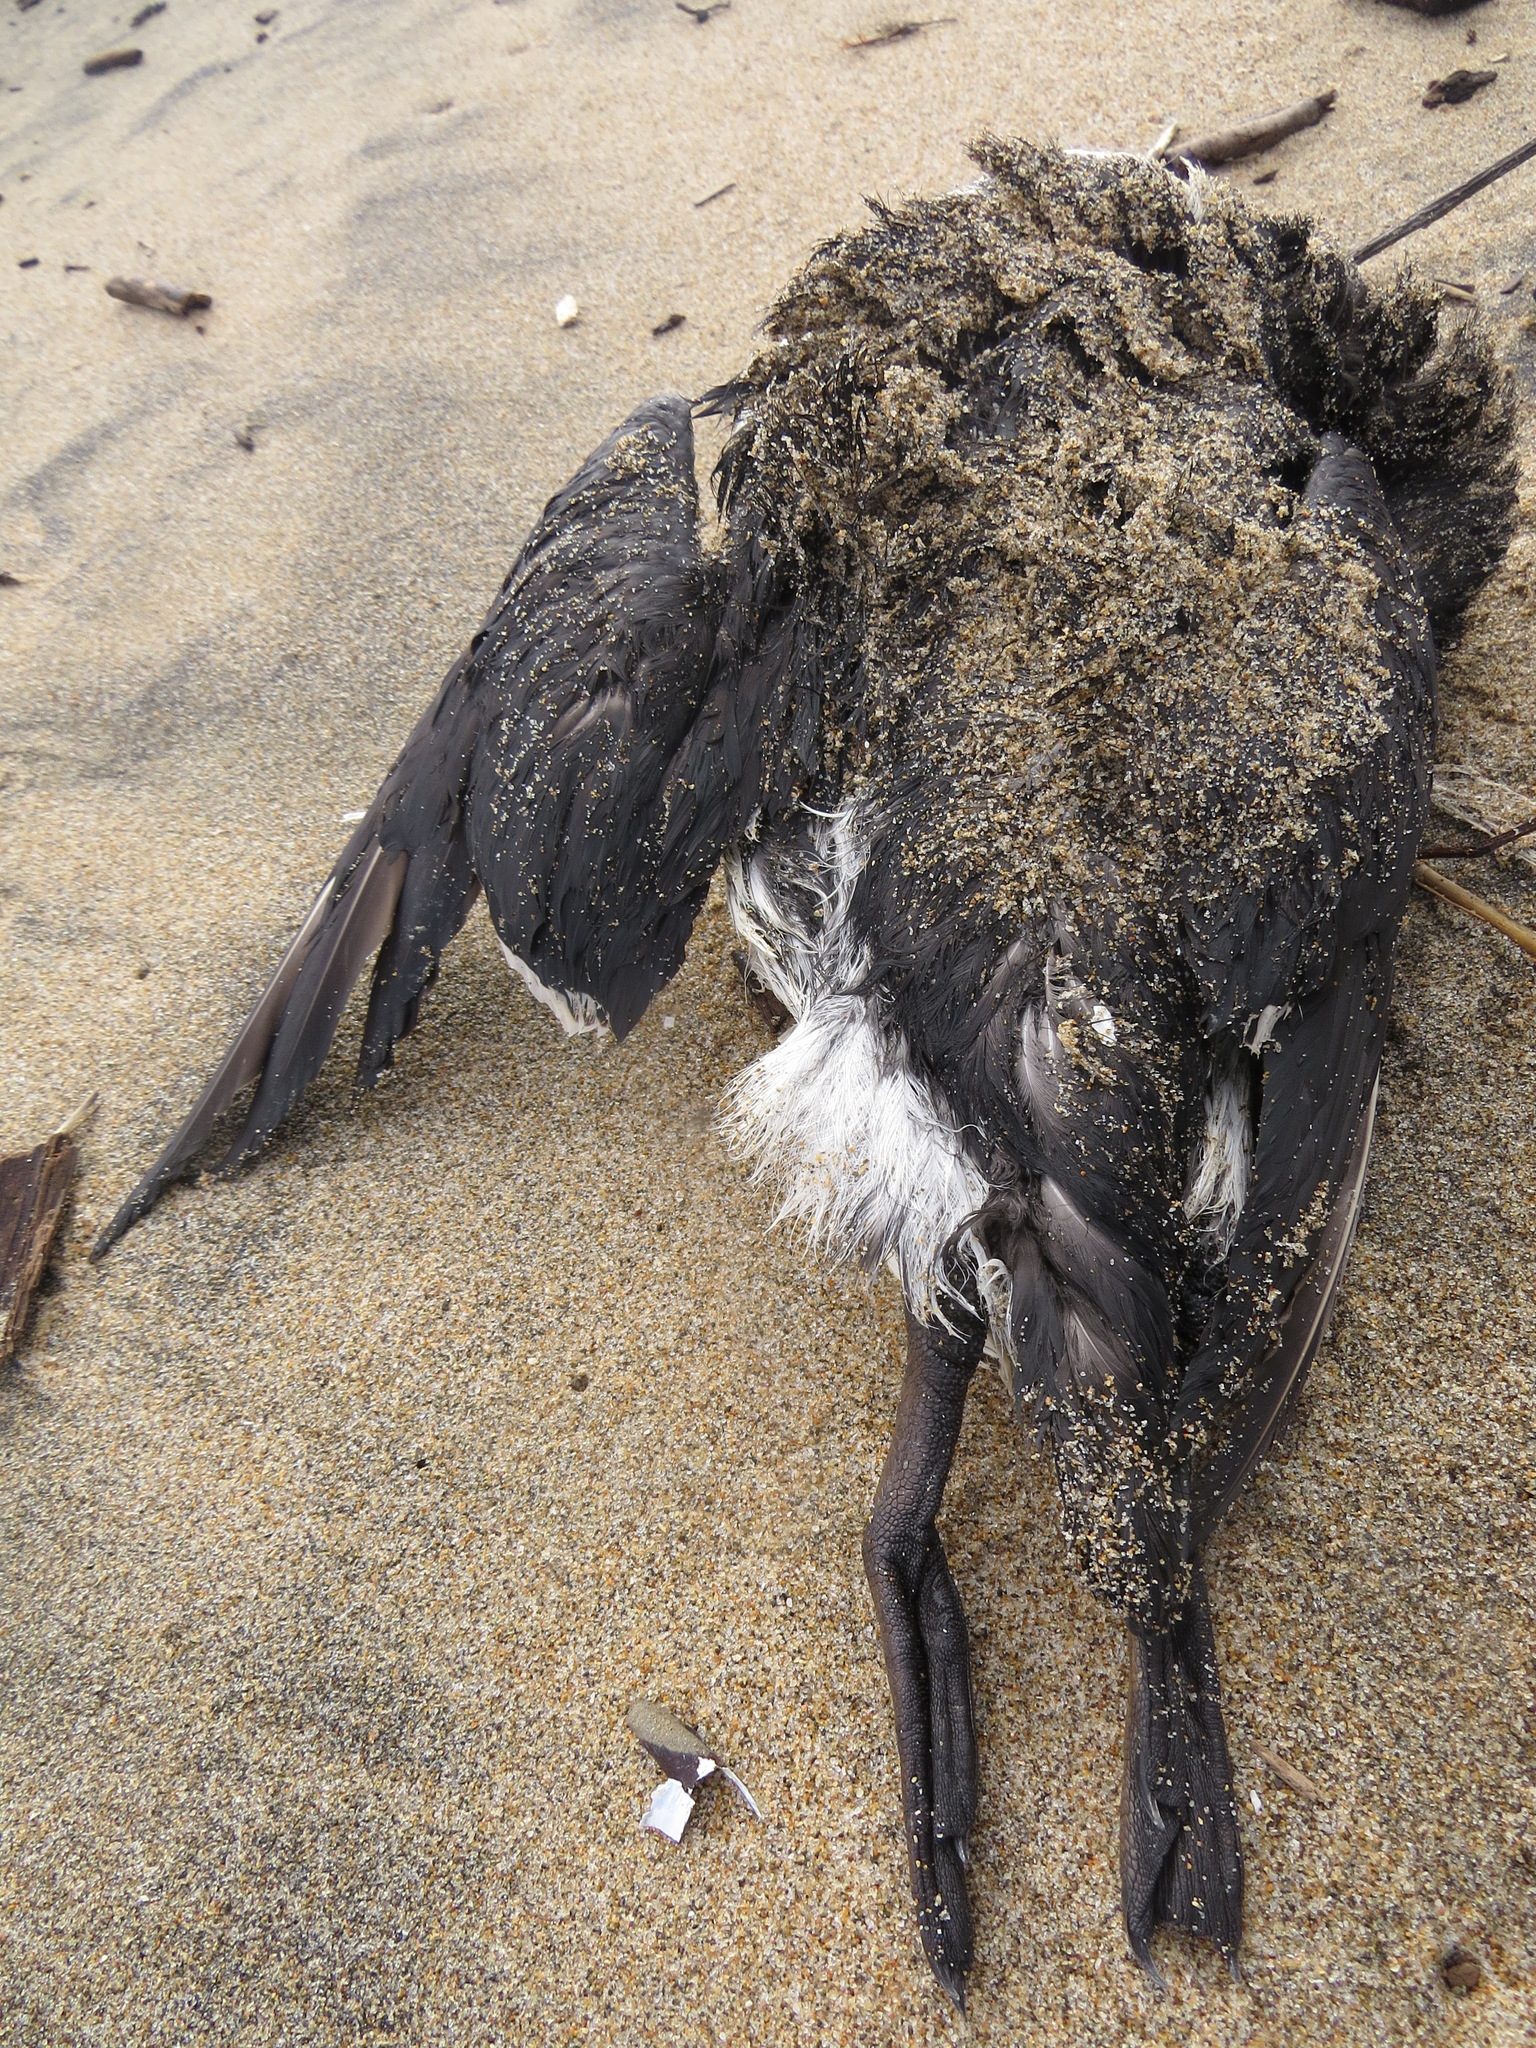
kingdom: Animalia
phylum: Chordata
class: Aves
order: Charadriiformes
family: Alcidae
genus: Uria
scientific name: Uria aalge
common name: Common murre
